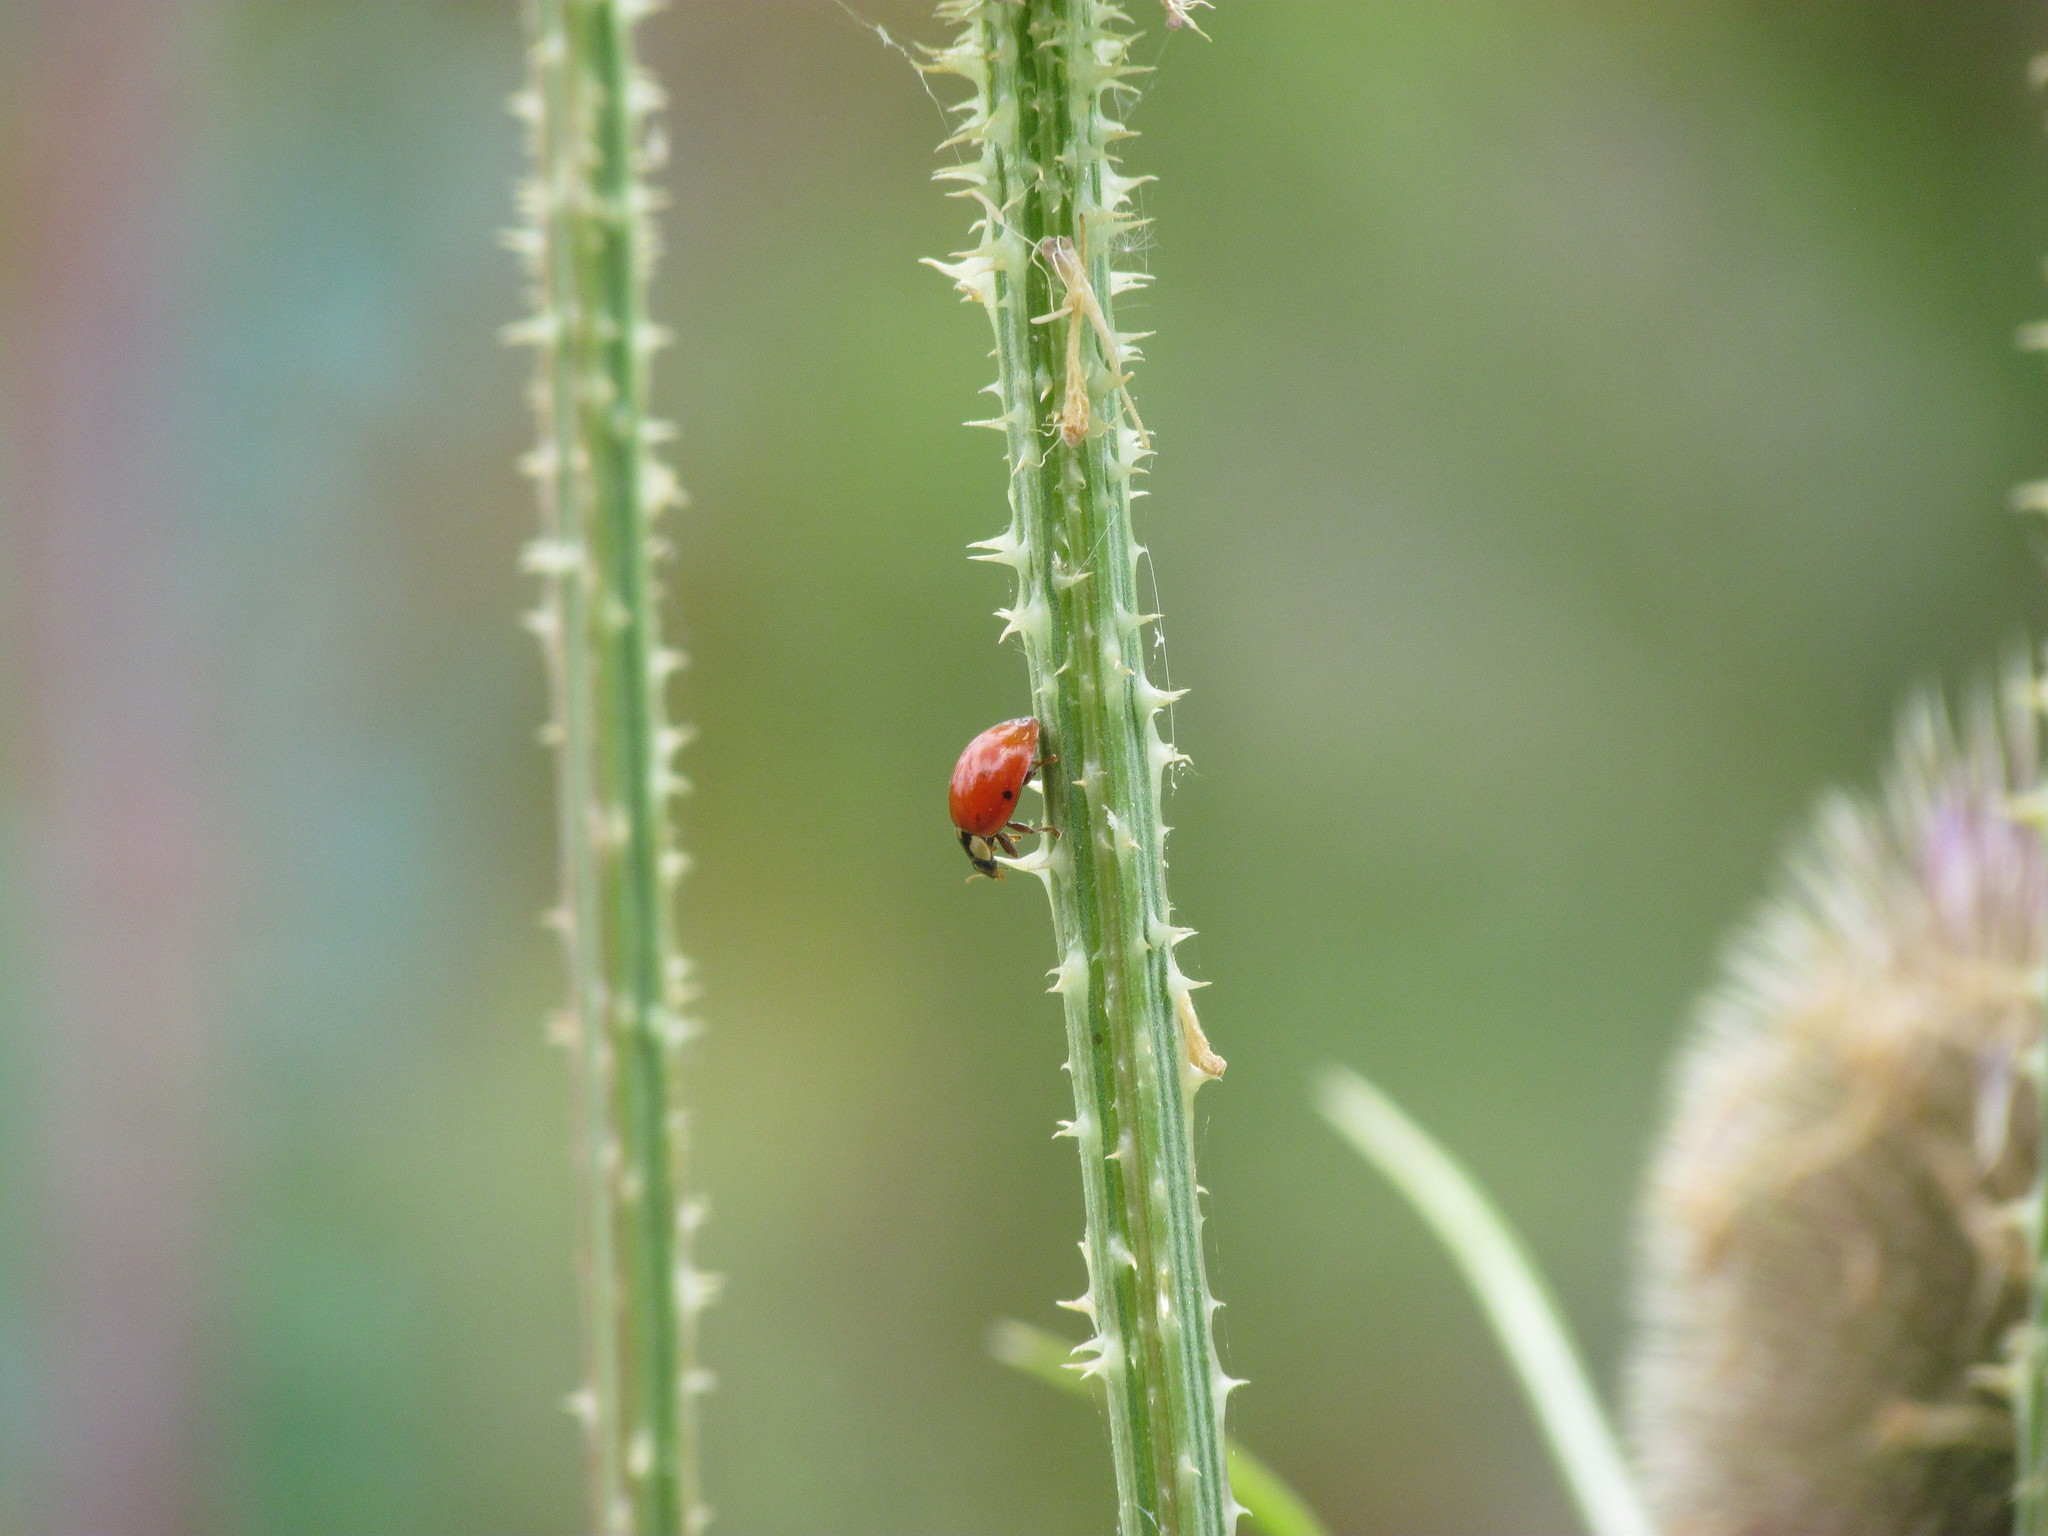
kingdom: Animalia
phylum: Arthropoda
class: Insecta
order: Coleoptera
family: Coccinellidae
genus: Harmonia
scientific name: Harmonia axyridis
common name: Harlequin ladybird
